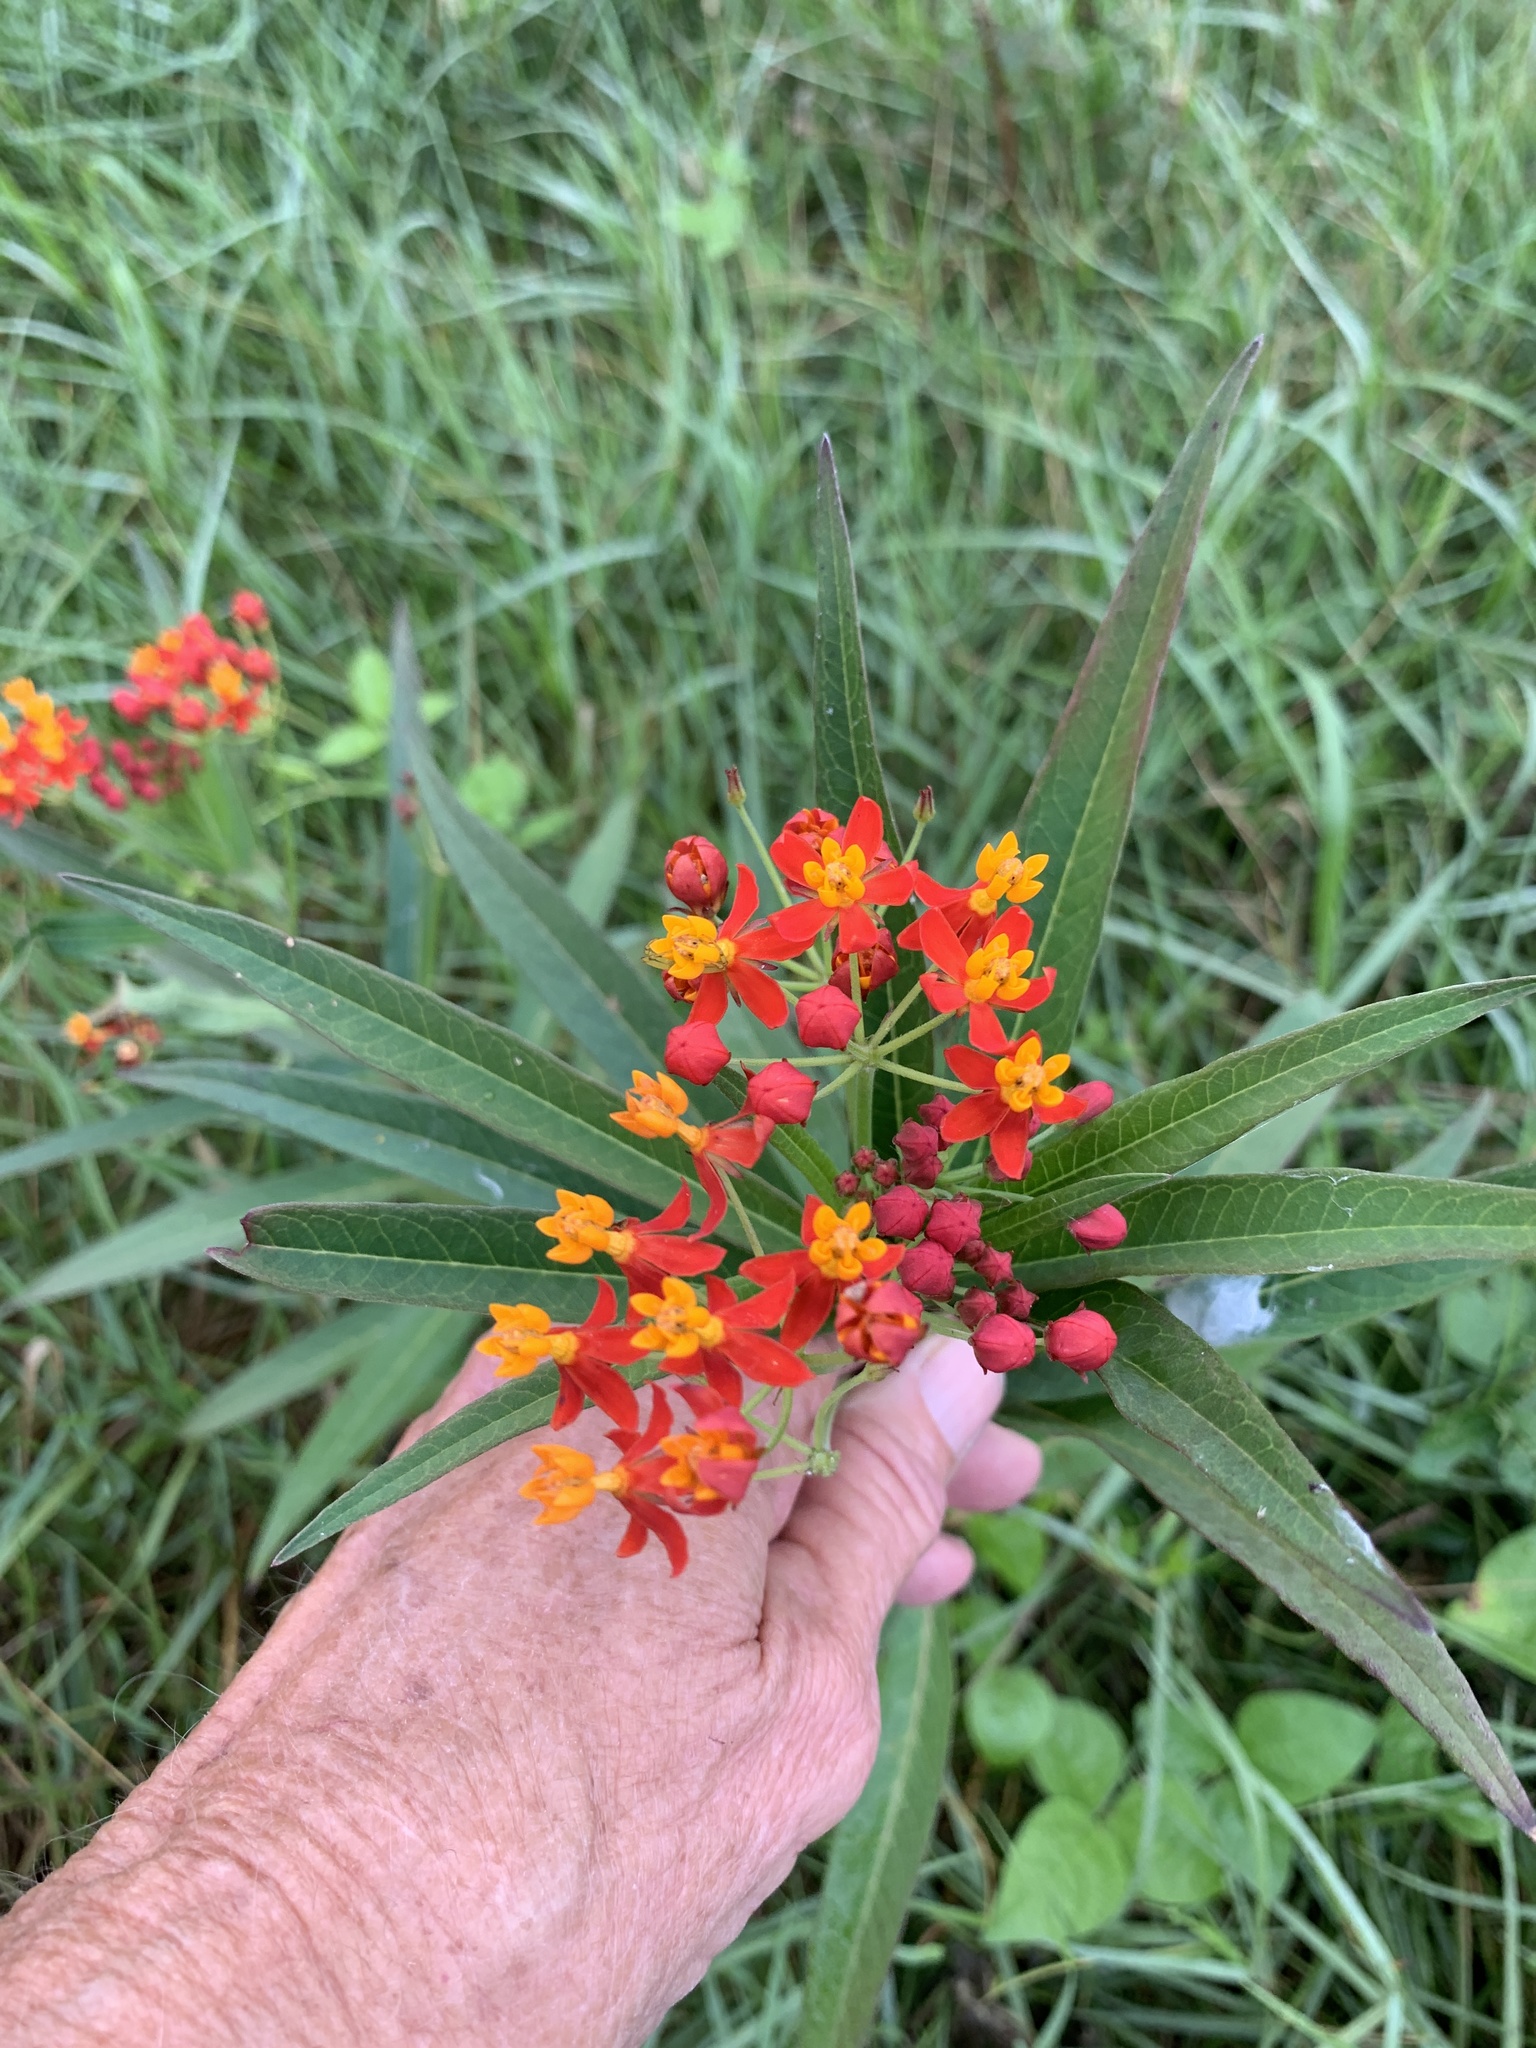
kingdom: Plantae
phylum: Tracheophyta
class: Magnoliopsida
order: Gentianales
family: Apocynaceae
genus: Asclepias
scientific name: Asclepias curassavica
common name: Bloodflower
